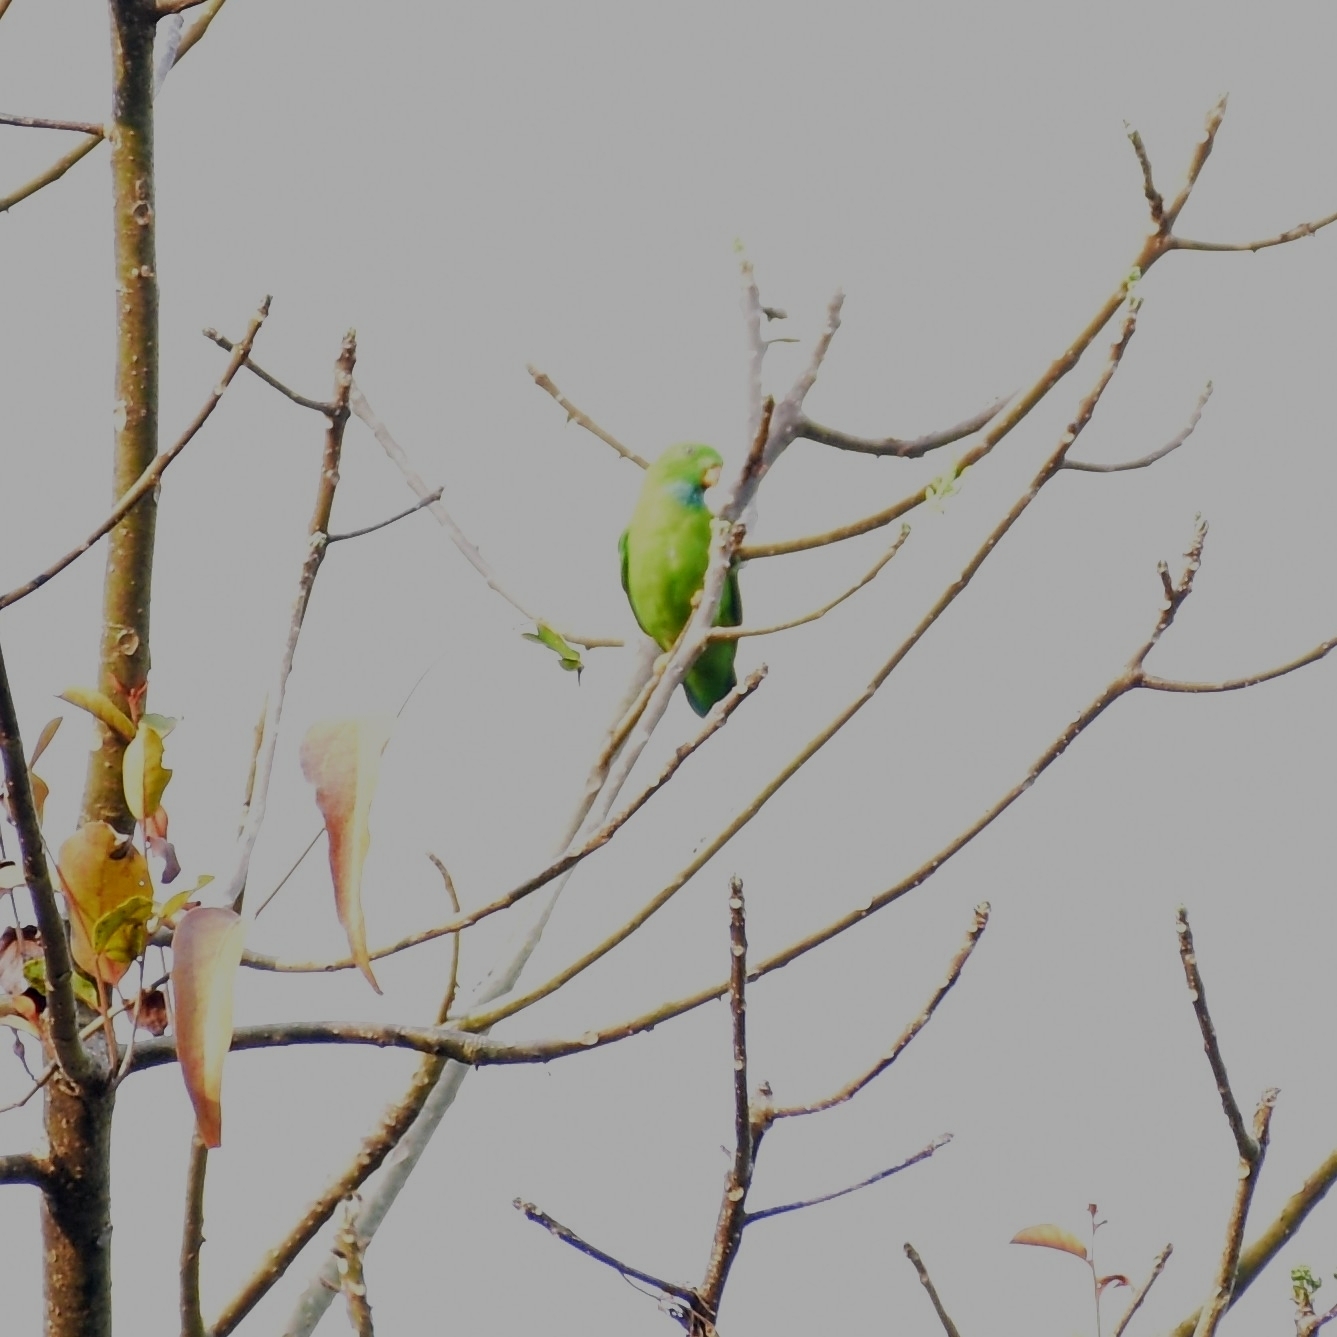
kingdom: Animalia
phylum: Chordata
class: Aves
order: Psittaciformes
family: Psittacidae
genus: Loriculus
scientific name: Loriculus vernalis
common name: Vernal hanging parrot
